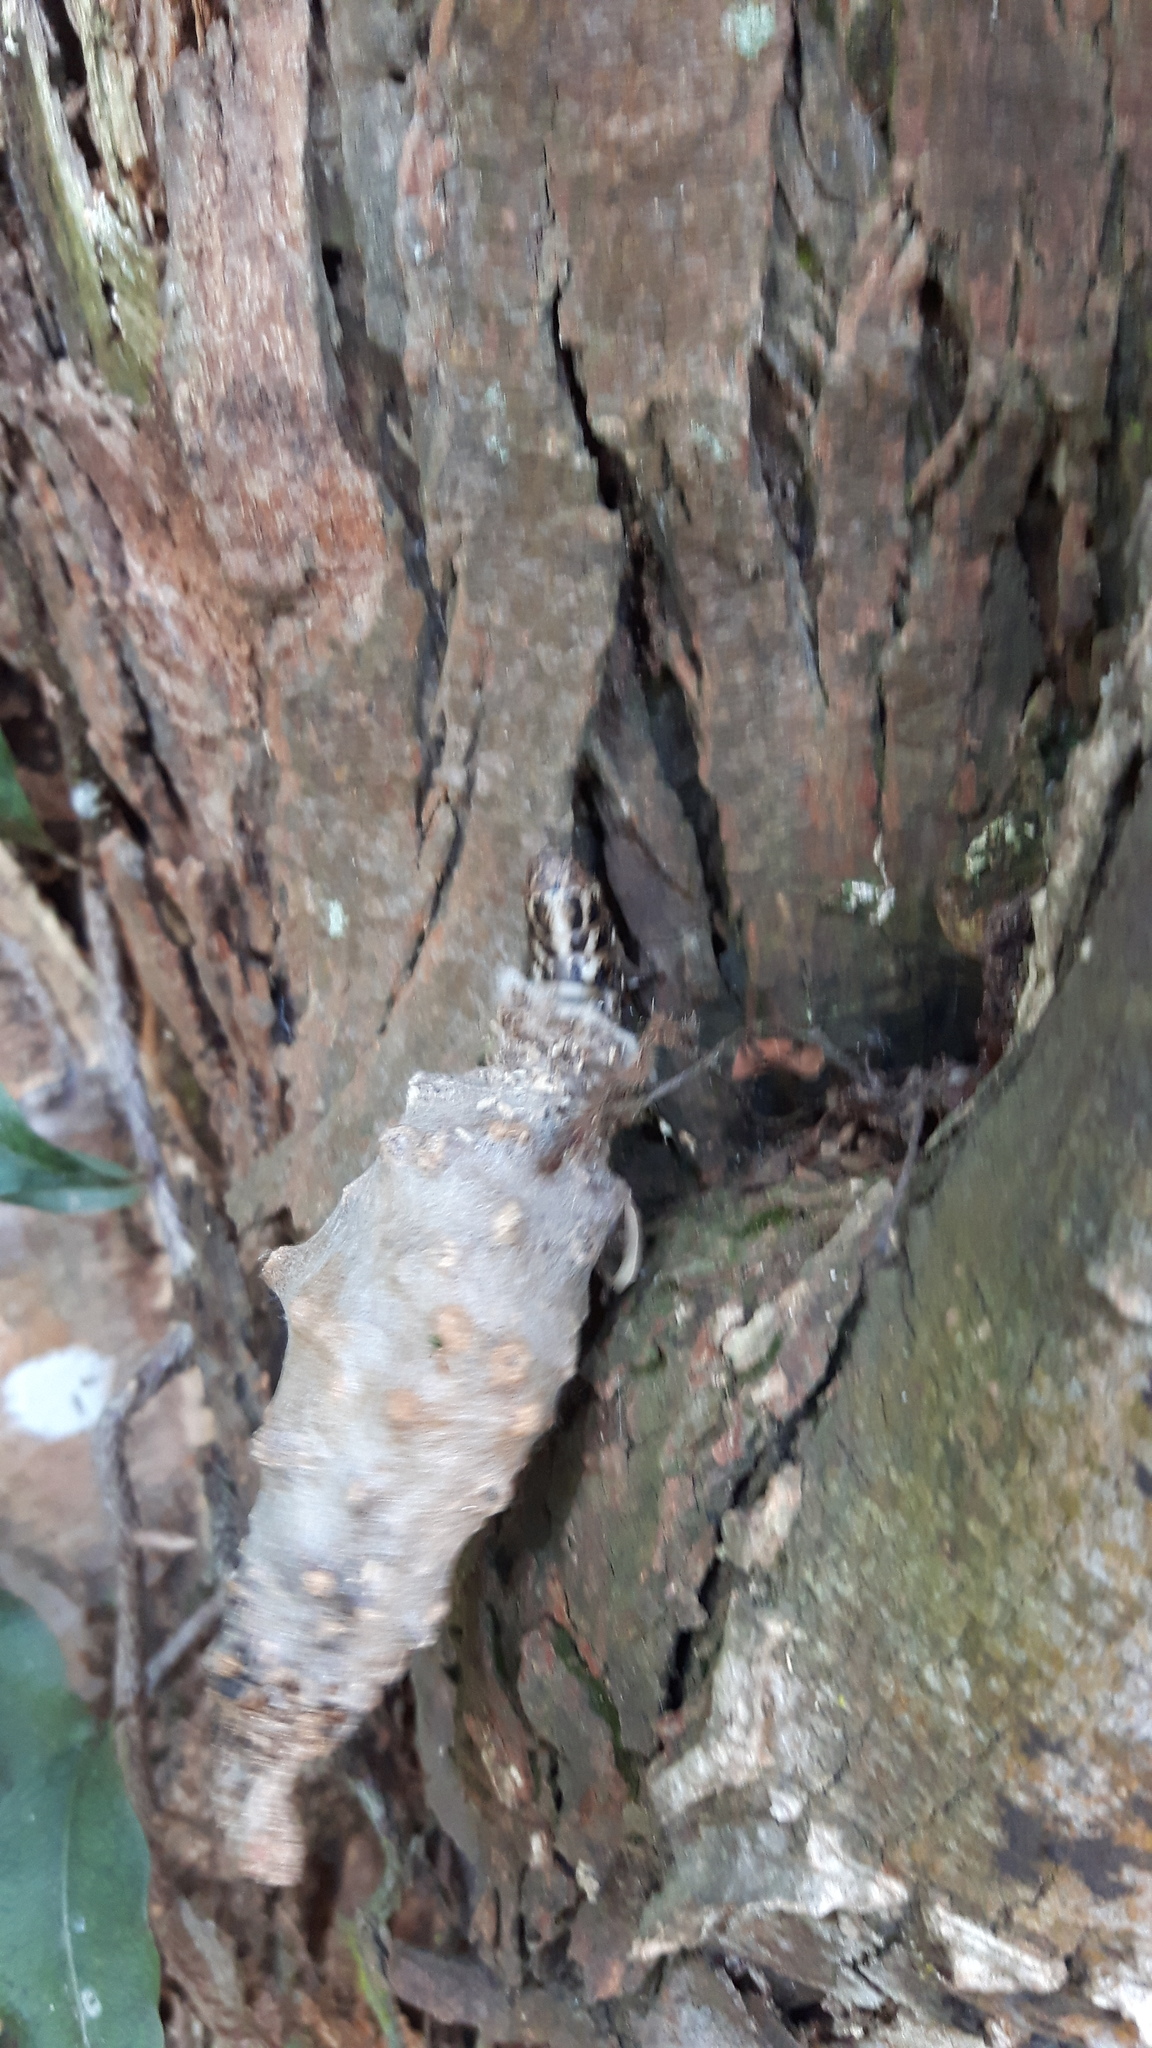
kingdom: Animalia
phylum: Arthropoda
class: Insecta
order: Lepidoptera
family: Psychidae
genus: Oiketicus
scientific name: Oiketicus kirbyi
